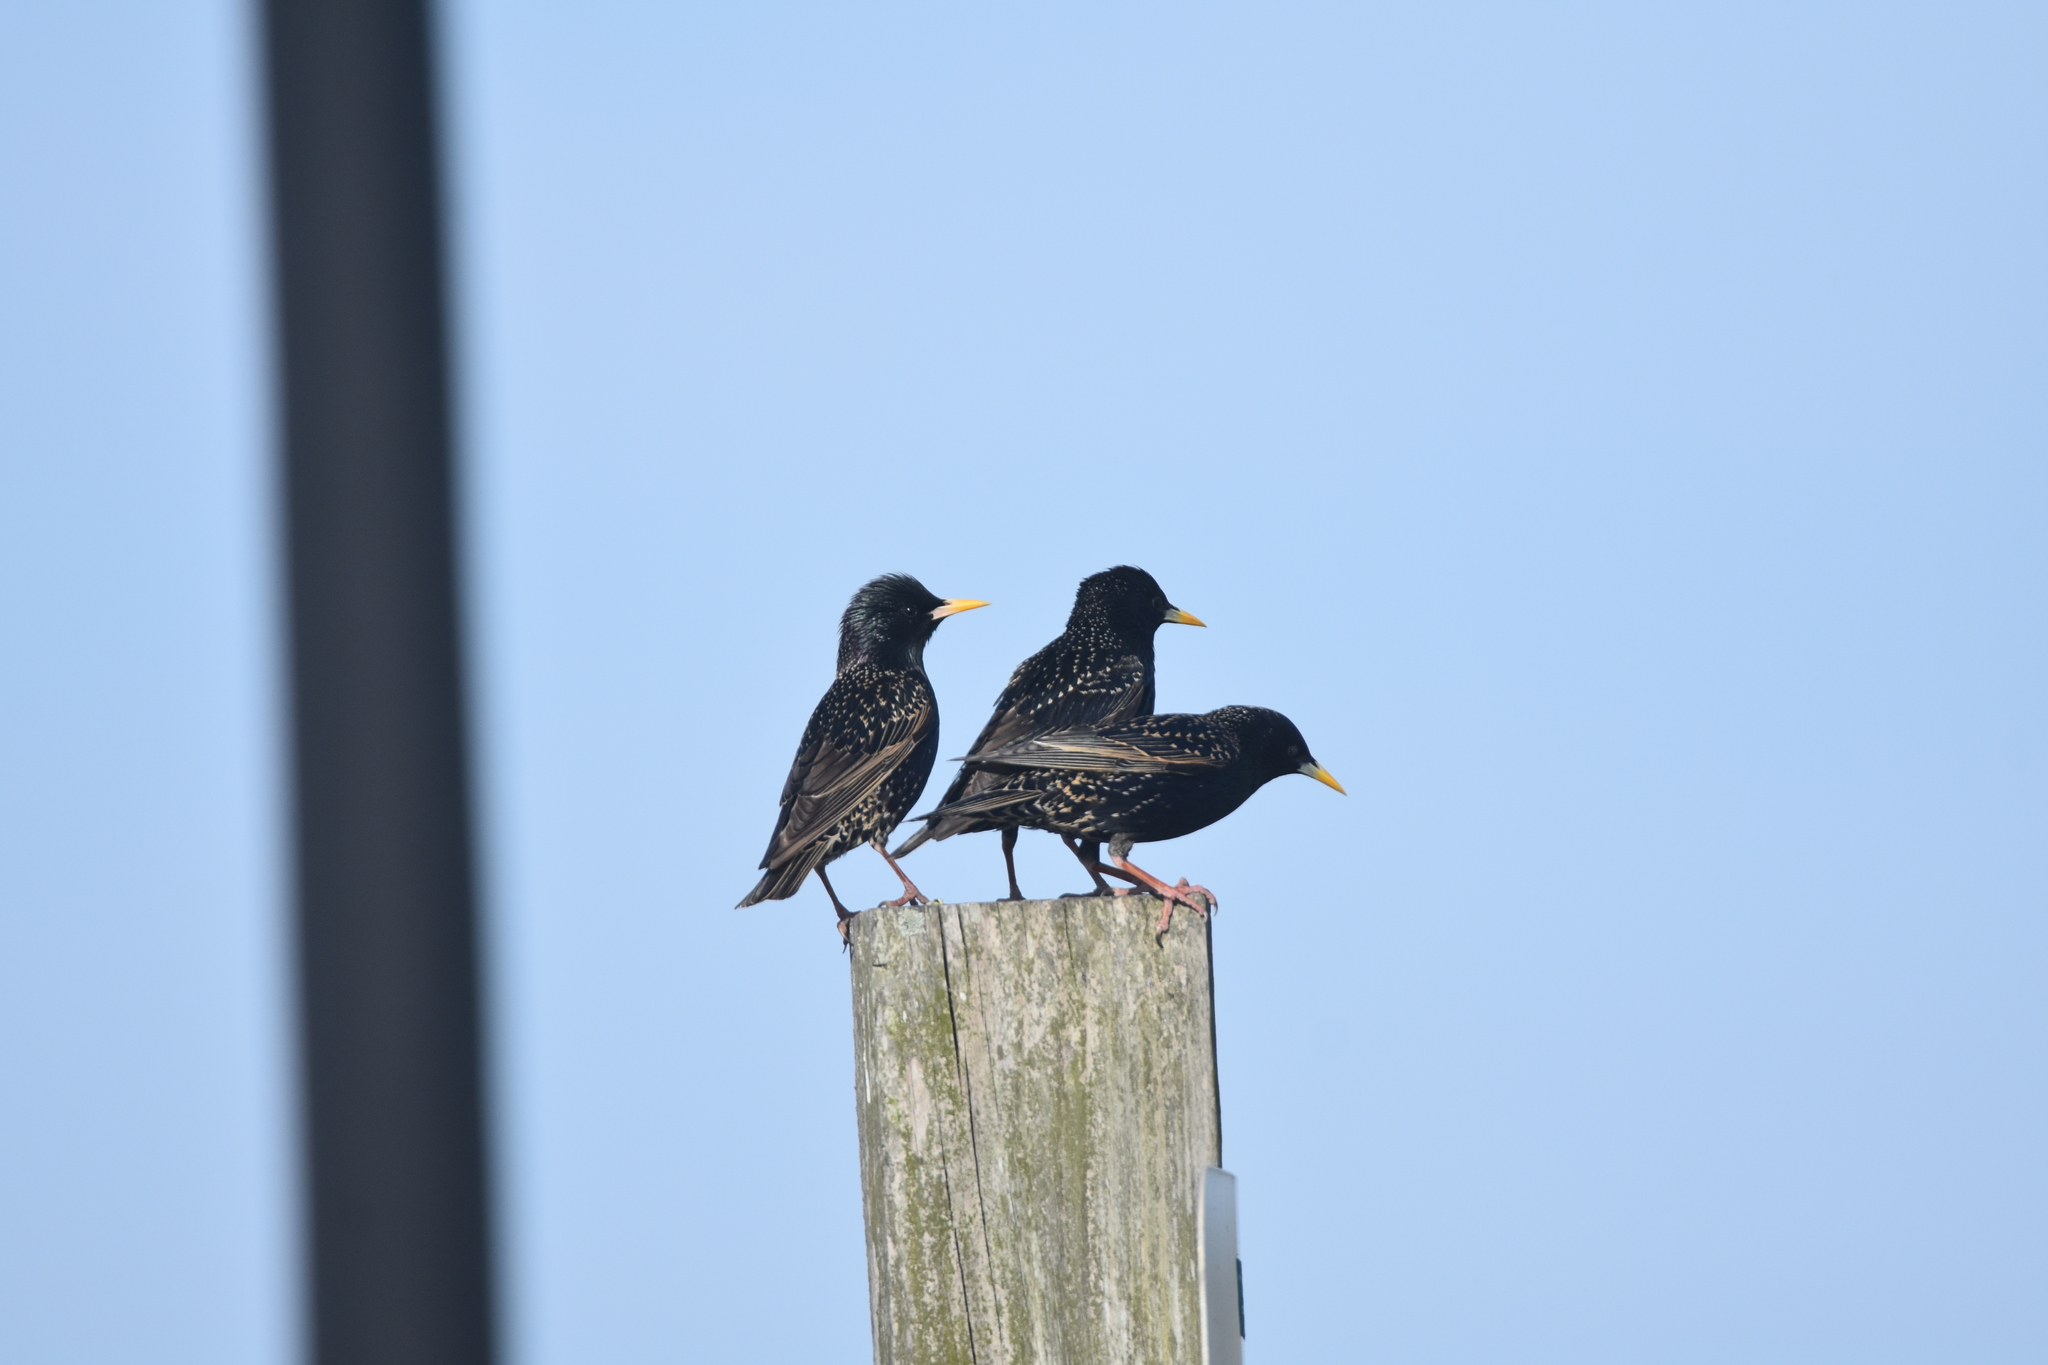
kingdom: Animalia
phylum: Chordata
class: Aves
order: Passeriformes
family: Sturnidae
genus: Sturnus
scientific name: Sturnus vulgaris
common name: Common starling
